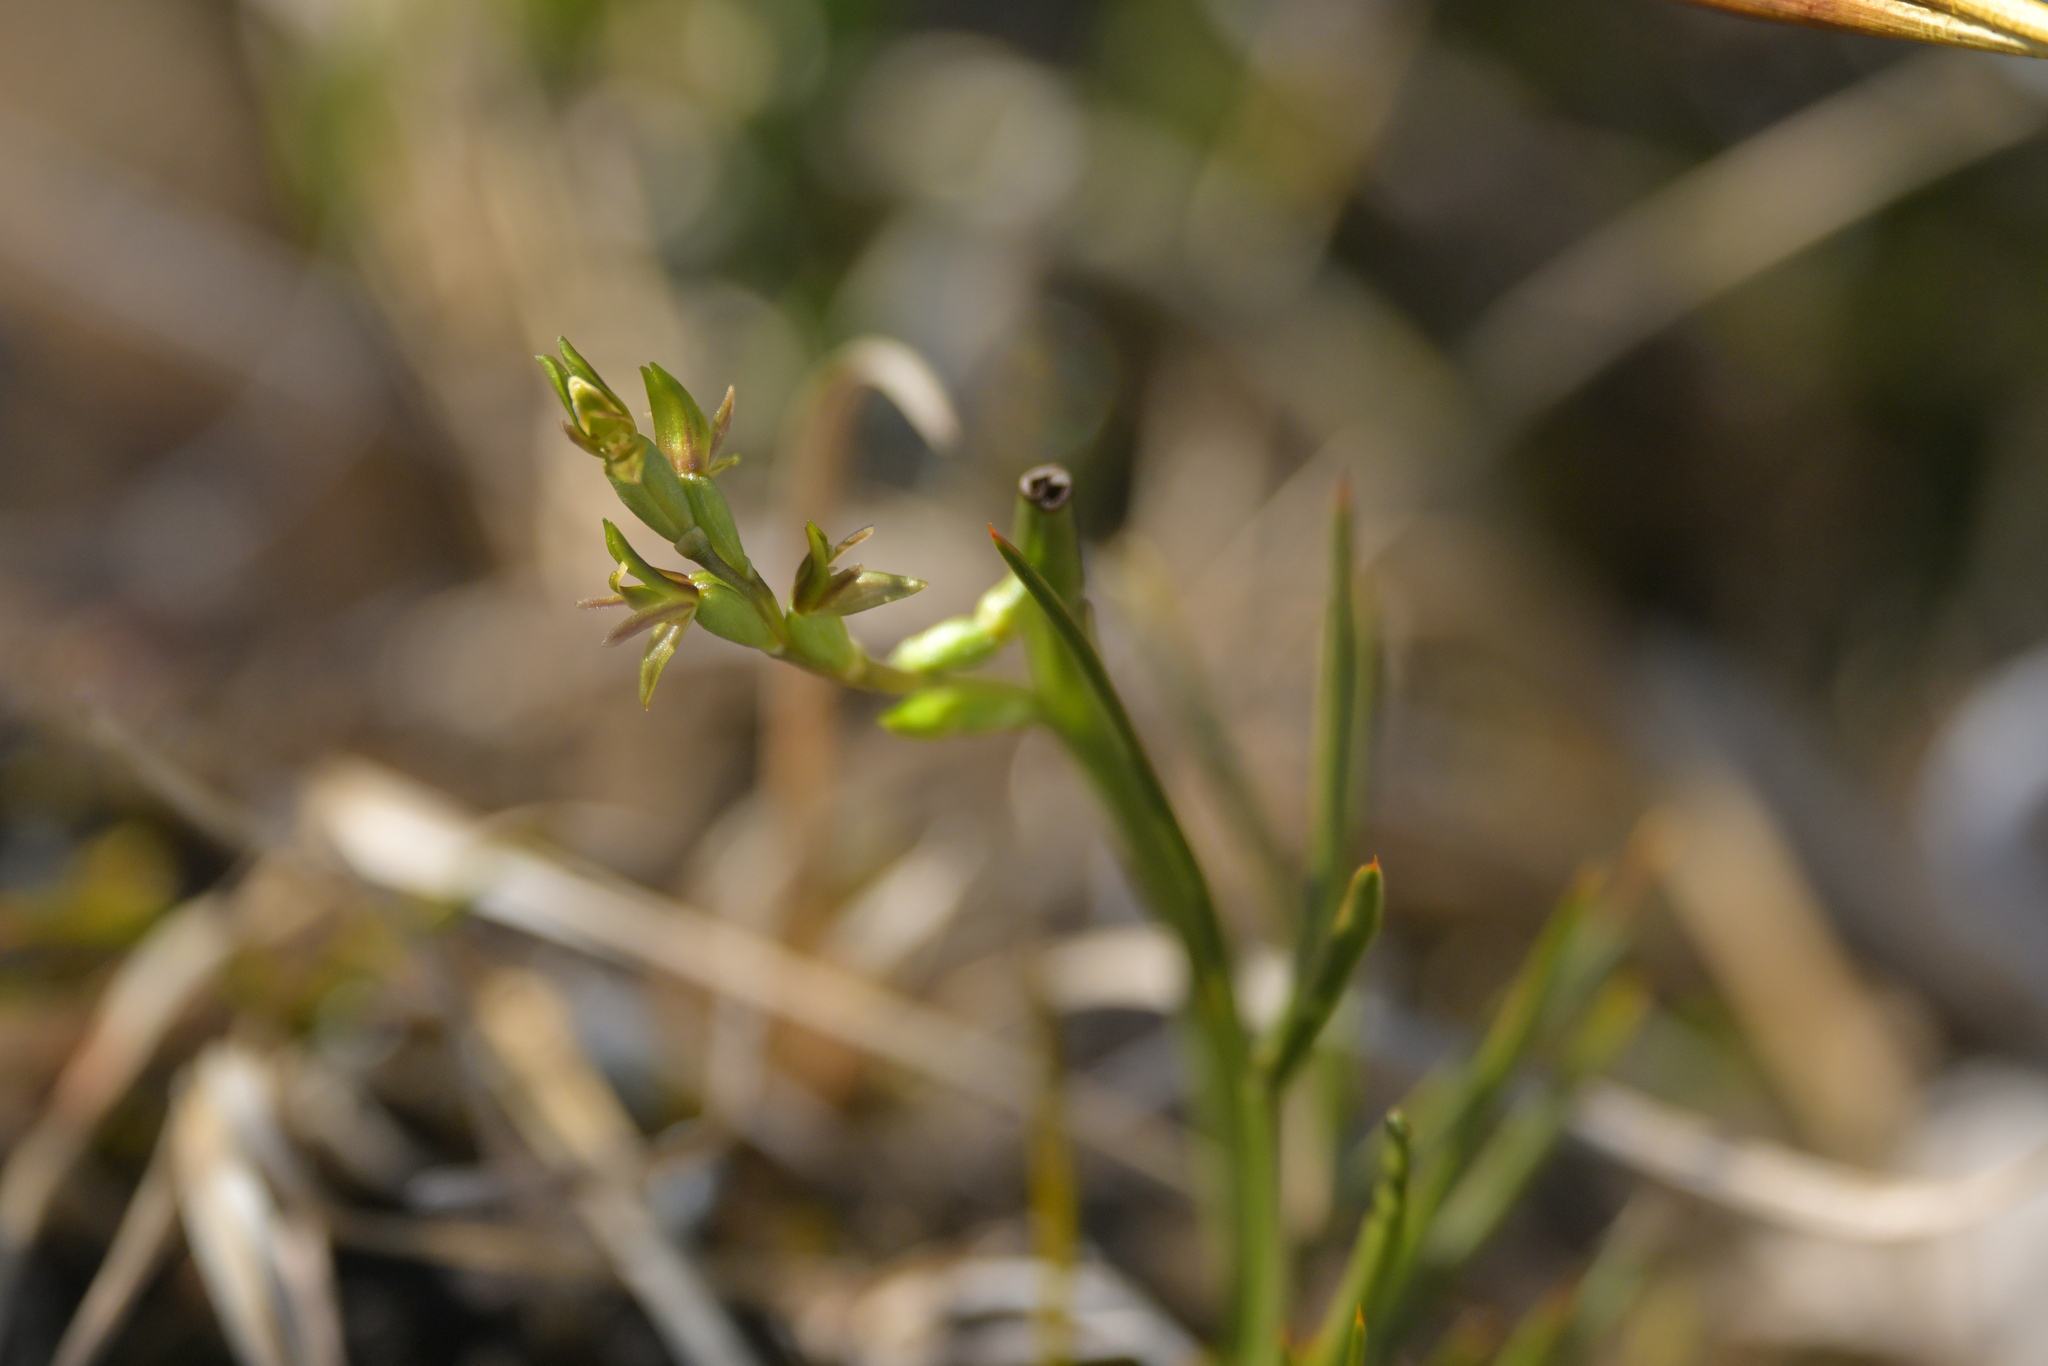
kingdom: Plantae
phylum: Tracheophyta
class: Liliopsida
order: Asparagales
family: Orchidaceae
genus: Prasophyllum
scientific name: Prasophyllum colensoi
